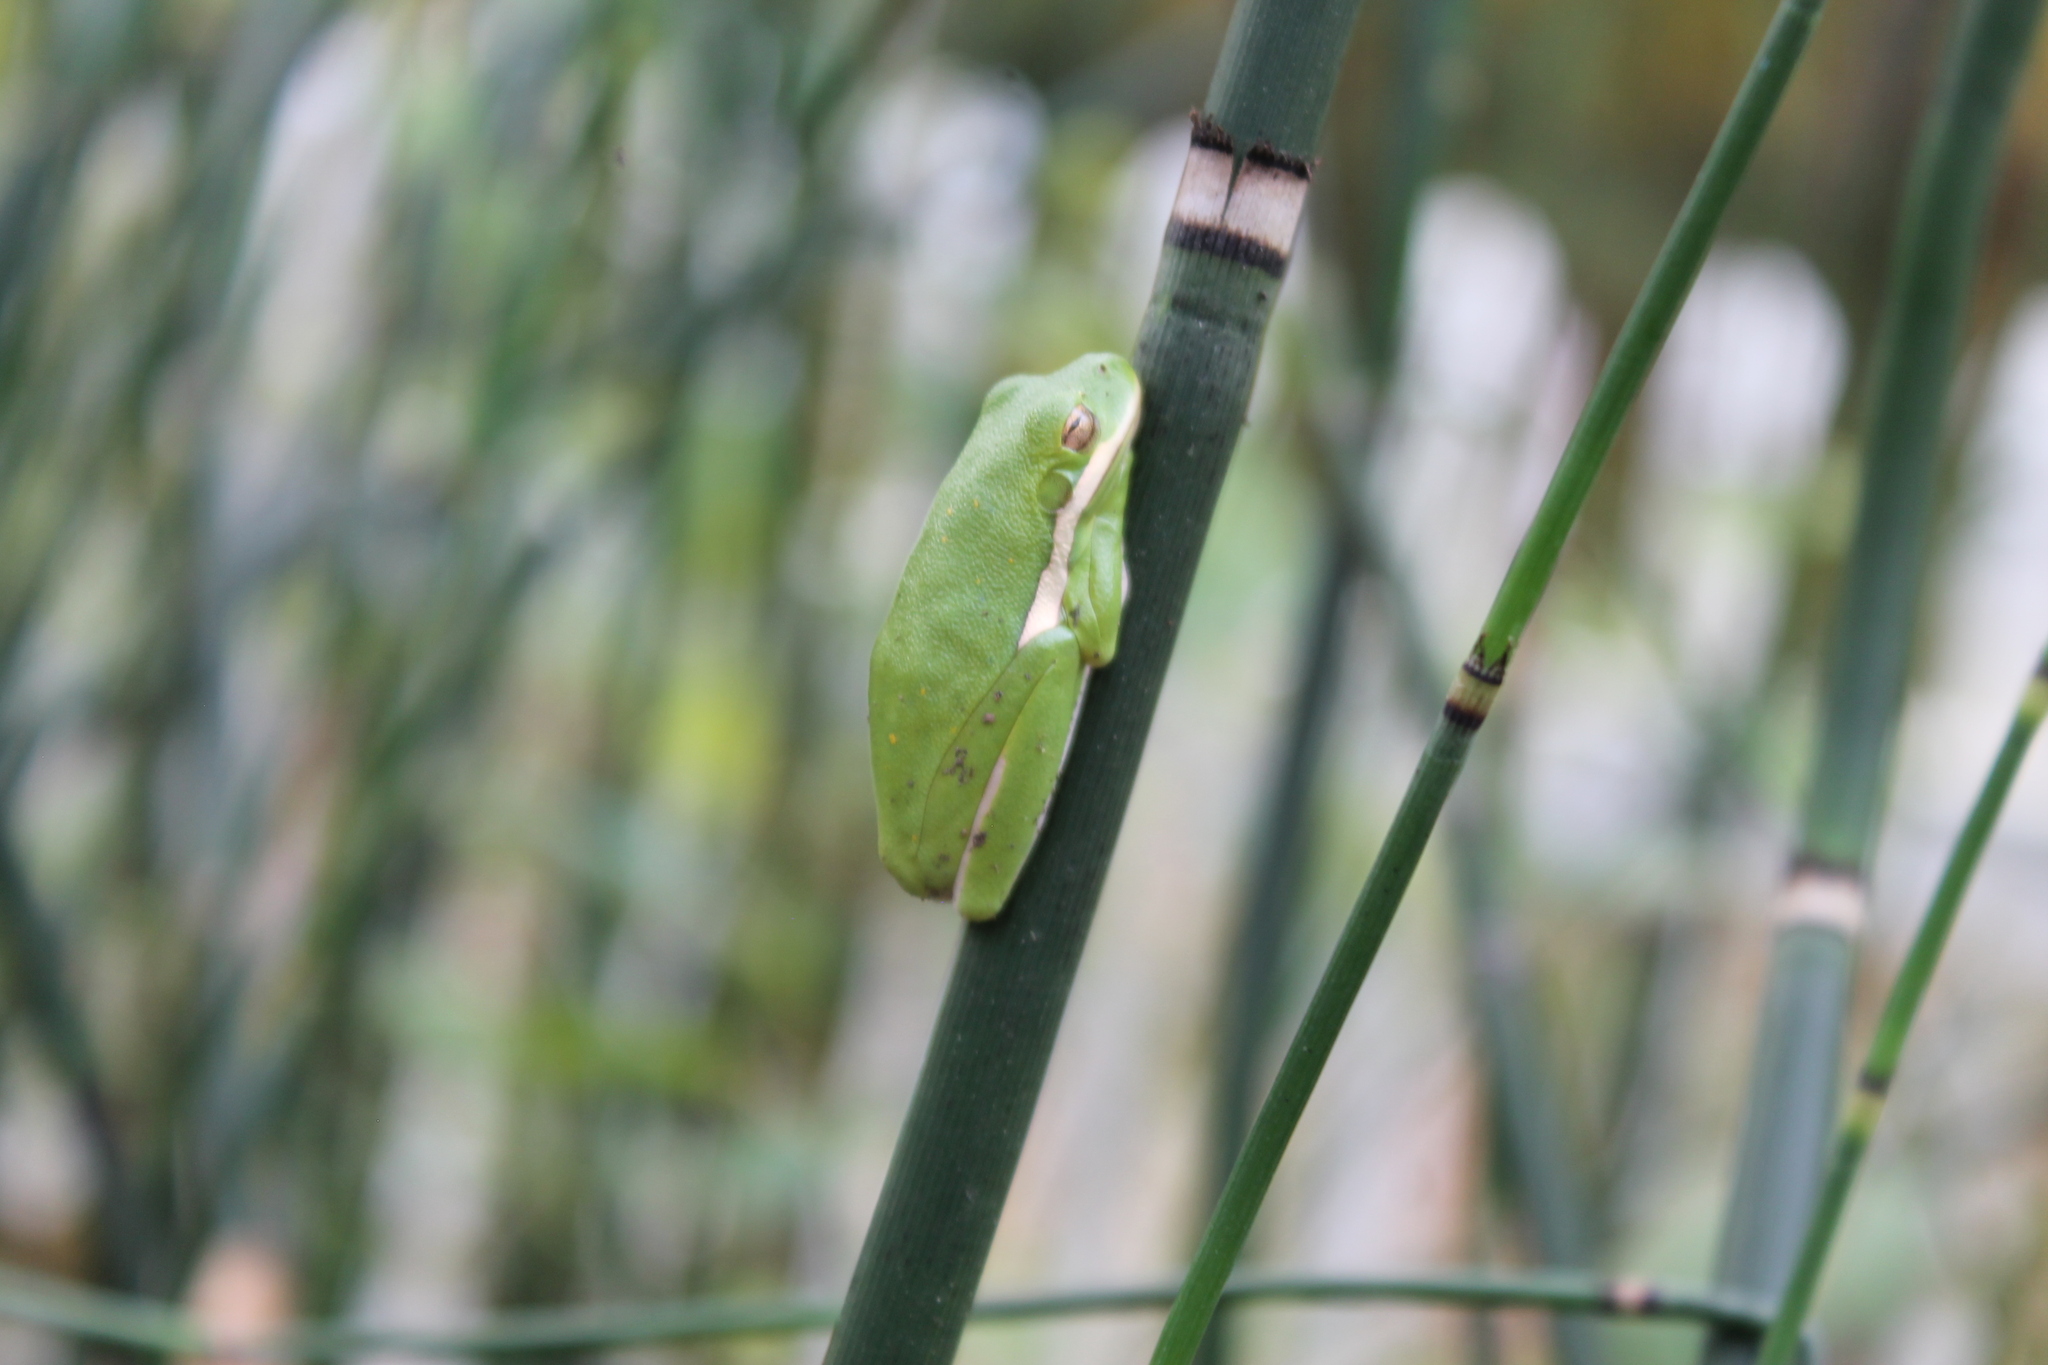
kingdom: Animalia
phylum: Chordata
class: Amphibia
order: Anura
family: Hylidae
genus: Dryophytes
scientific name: Dryophytes cinereus
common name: Green treefrog
